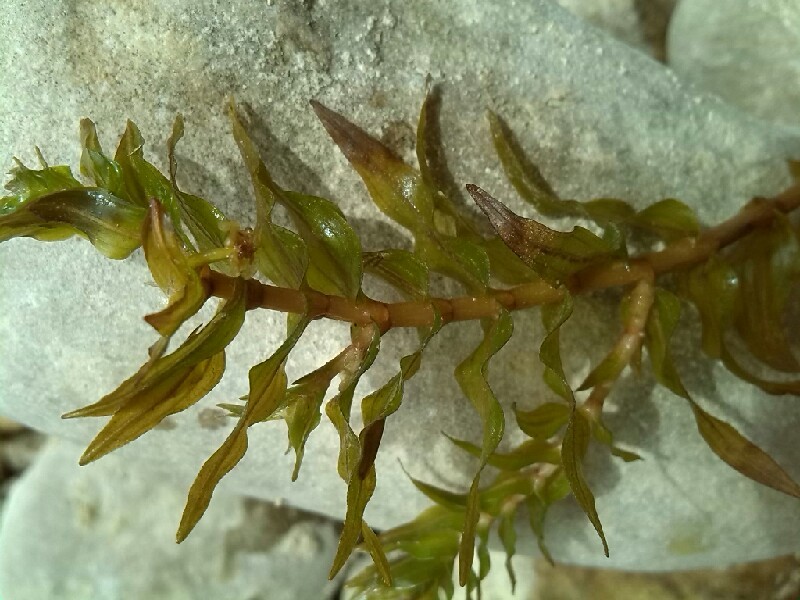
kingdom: Plantae
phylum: Tracheophyta
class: Liliopsida
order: Alismatales
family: Potamogetonaceae
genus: Groenlandia
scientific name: Groenlandia densa
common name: Opposite-leaved pondweed
